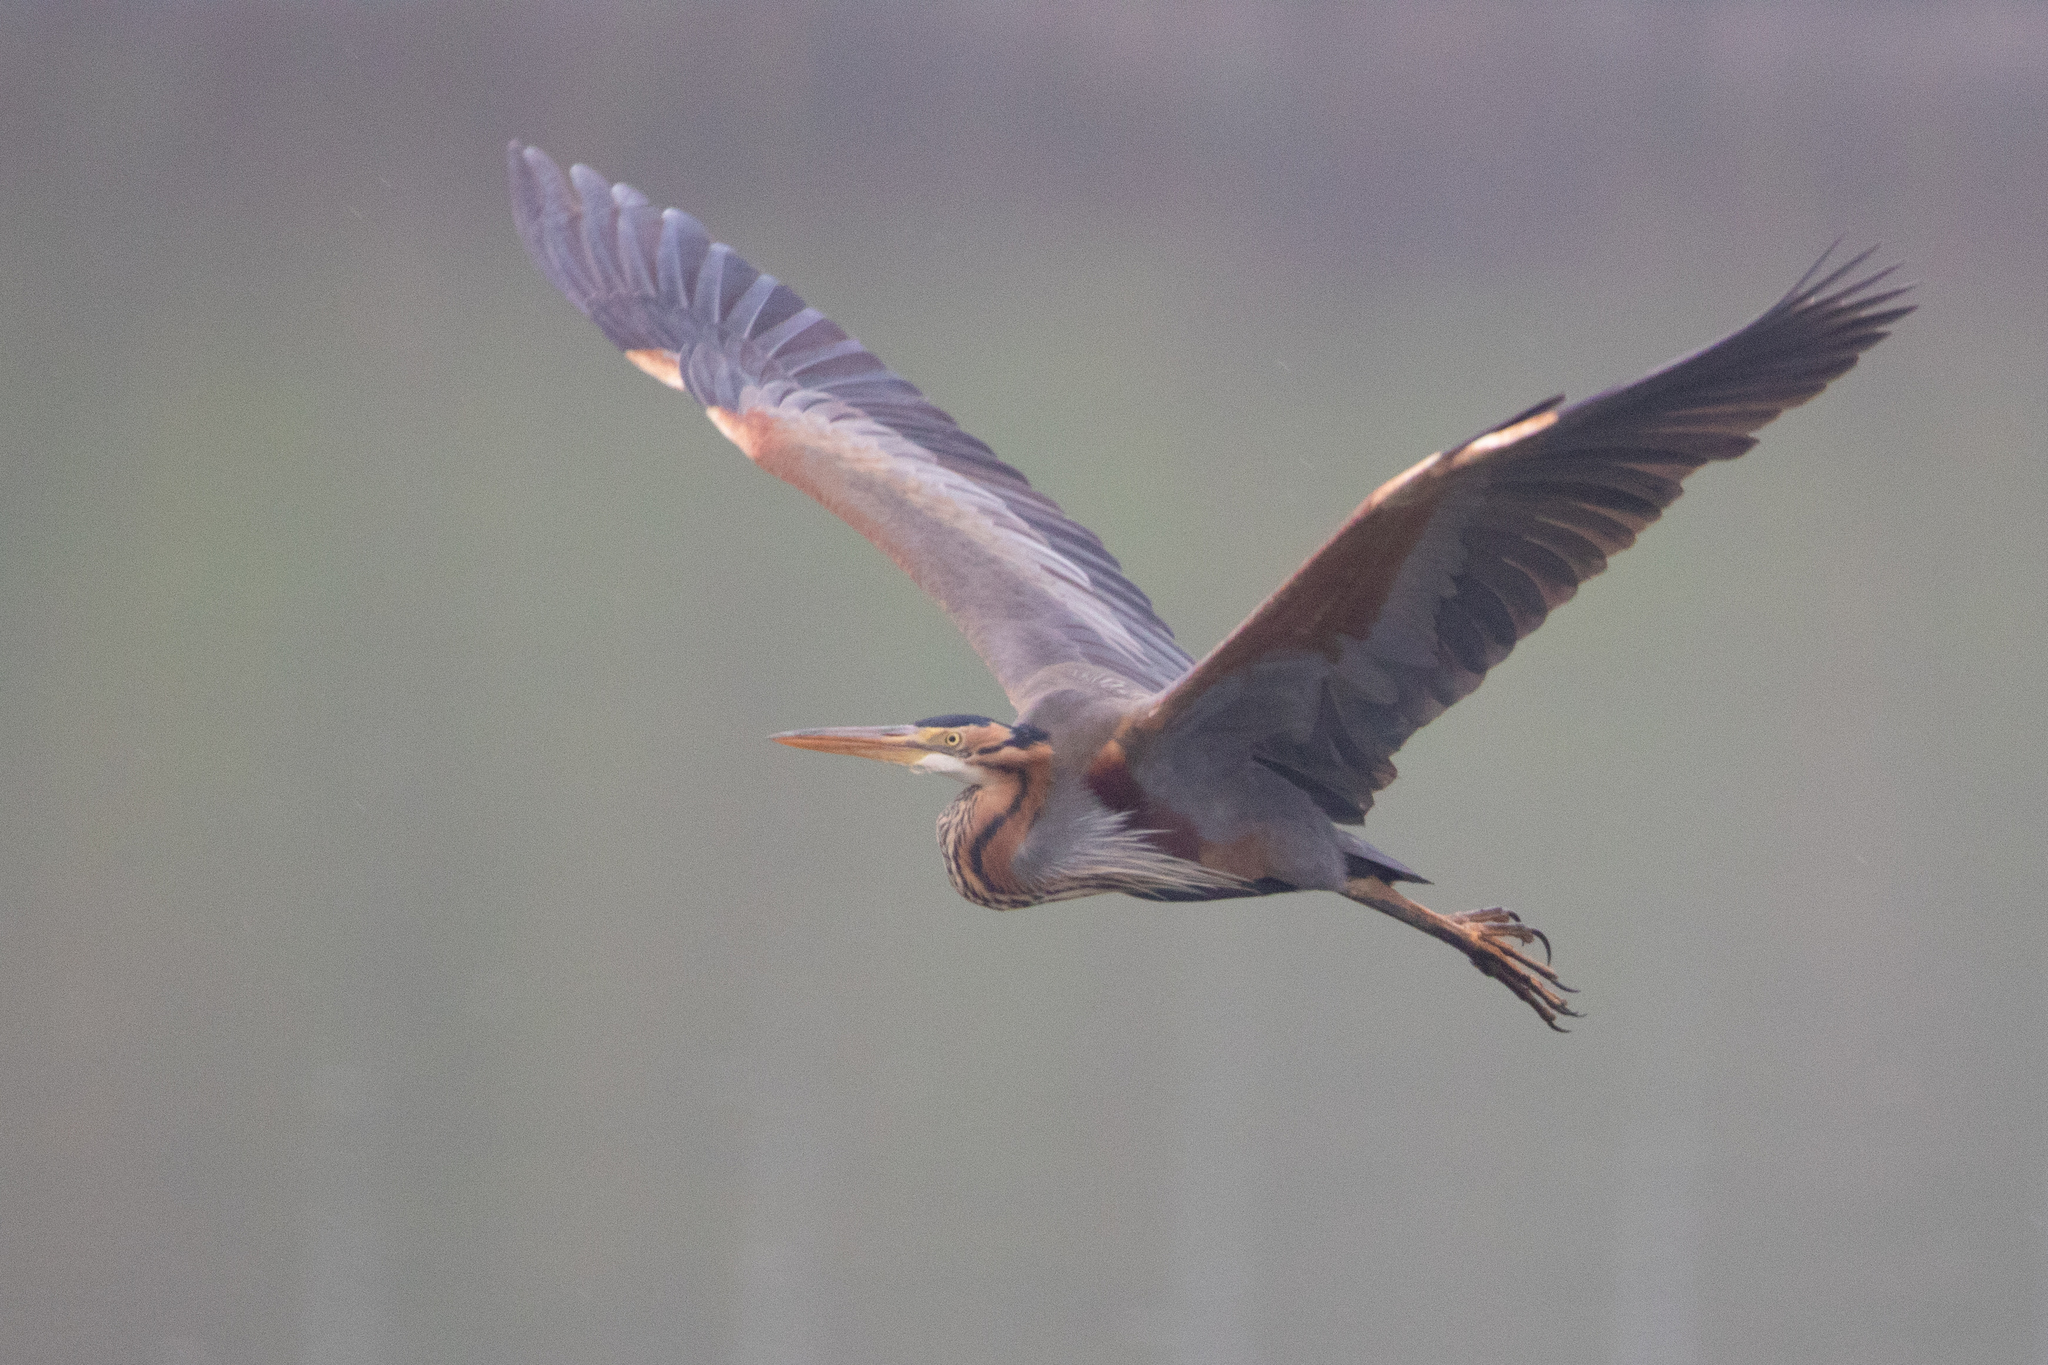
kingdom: Animalia
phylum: Chordata
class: Aves
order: Pelecaniformes
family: Ardeidae
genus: Ardea
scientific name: Ardea purpurea
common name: Purple heron
